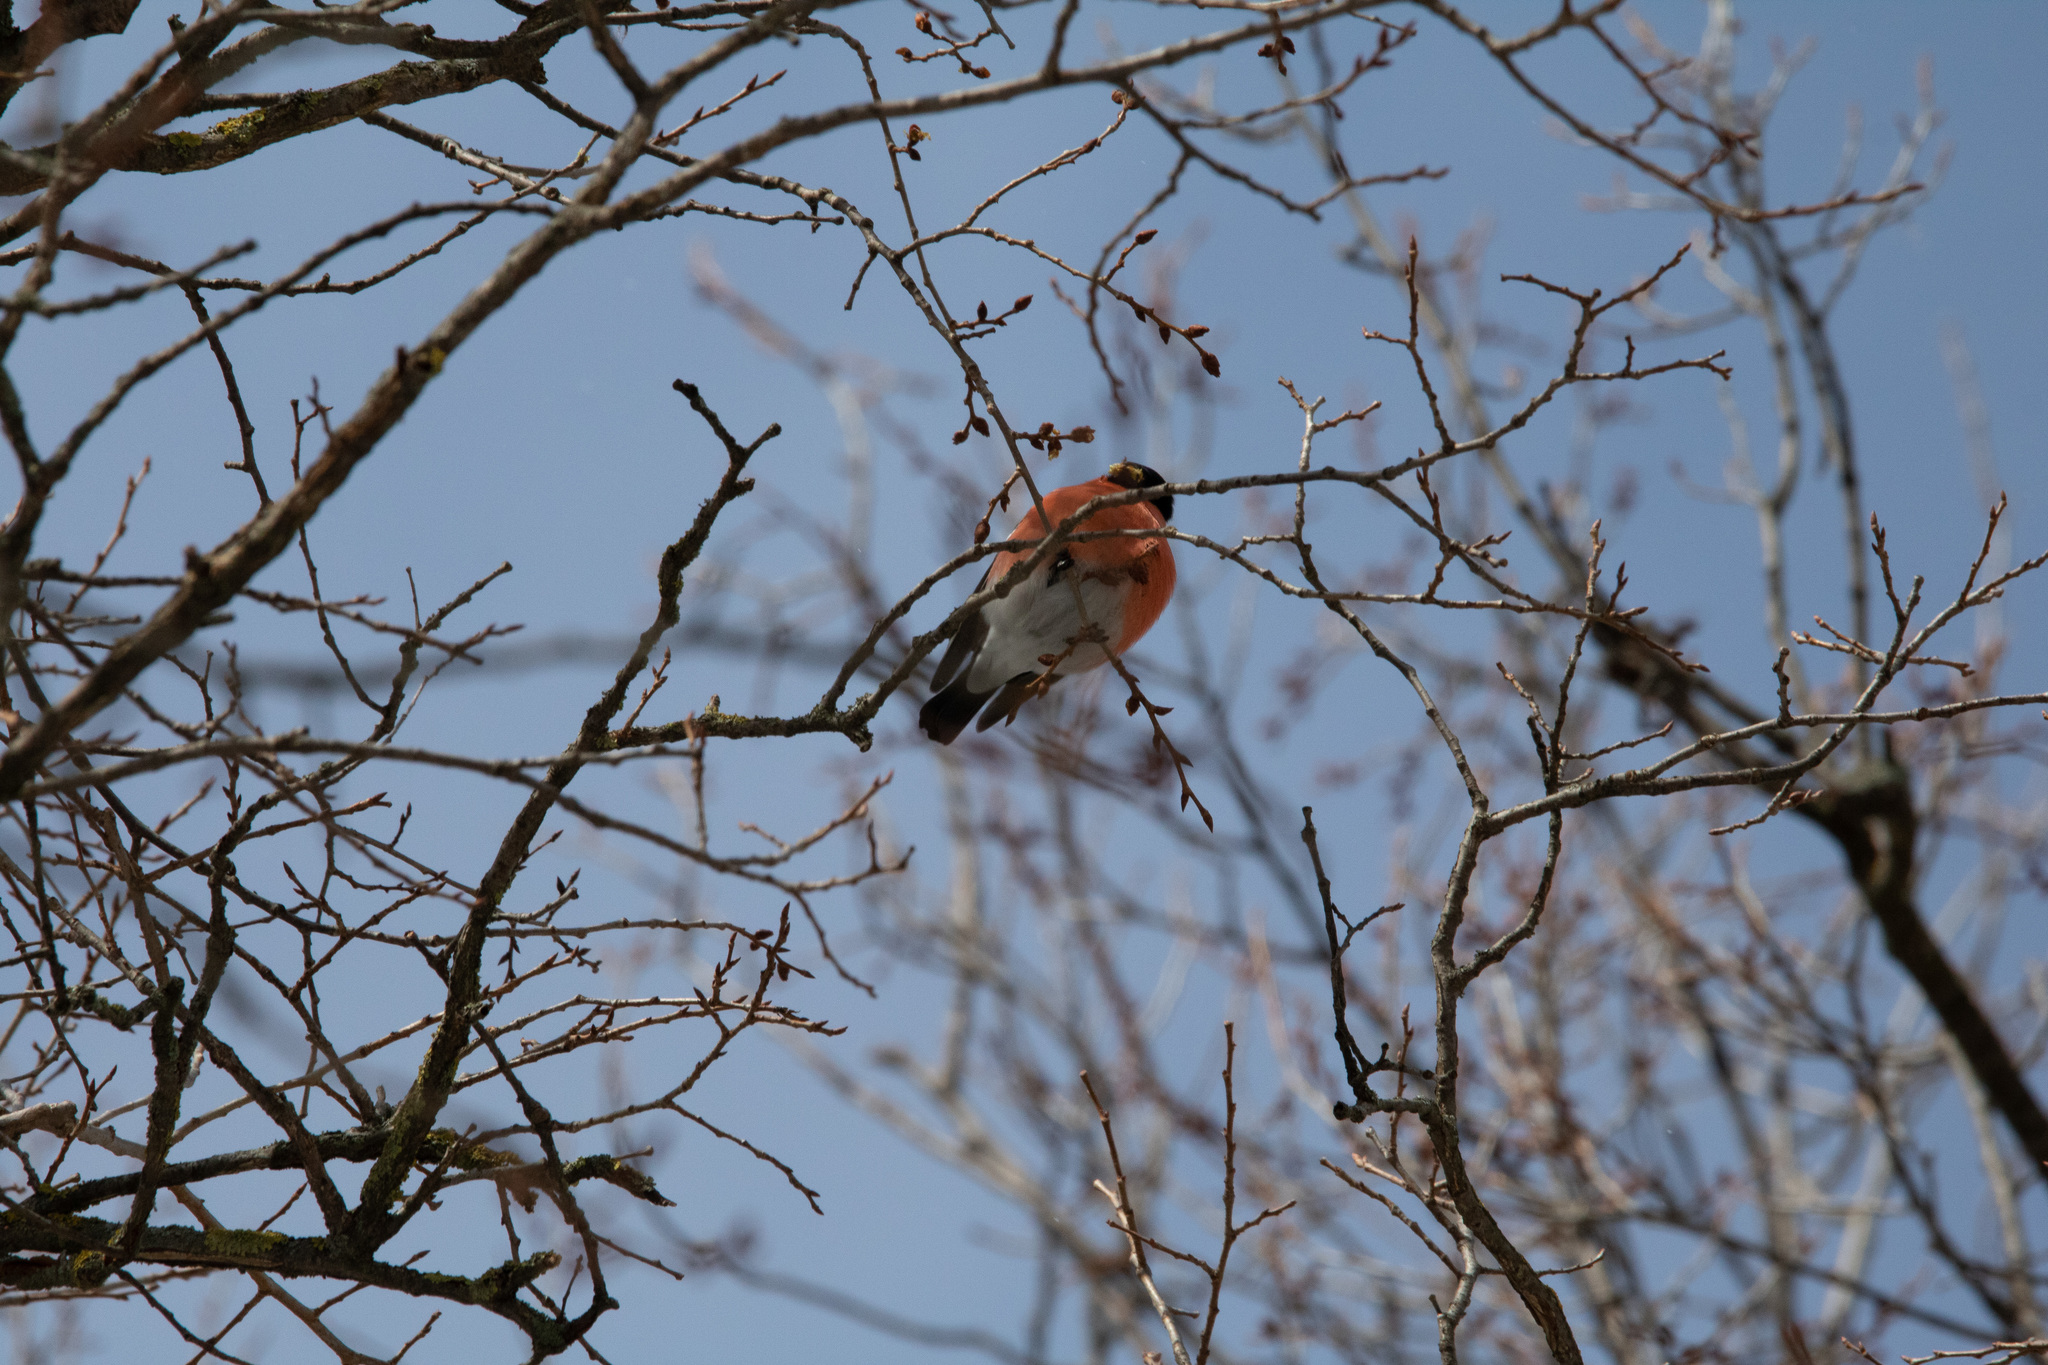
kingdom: Animalia
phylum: Chordata
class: Aves
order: Passeriformes
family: Fringillidae
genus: Pyrrhula
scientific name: Pyrrhula pyrrhula
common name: Eurasian bullfinch
